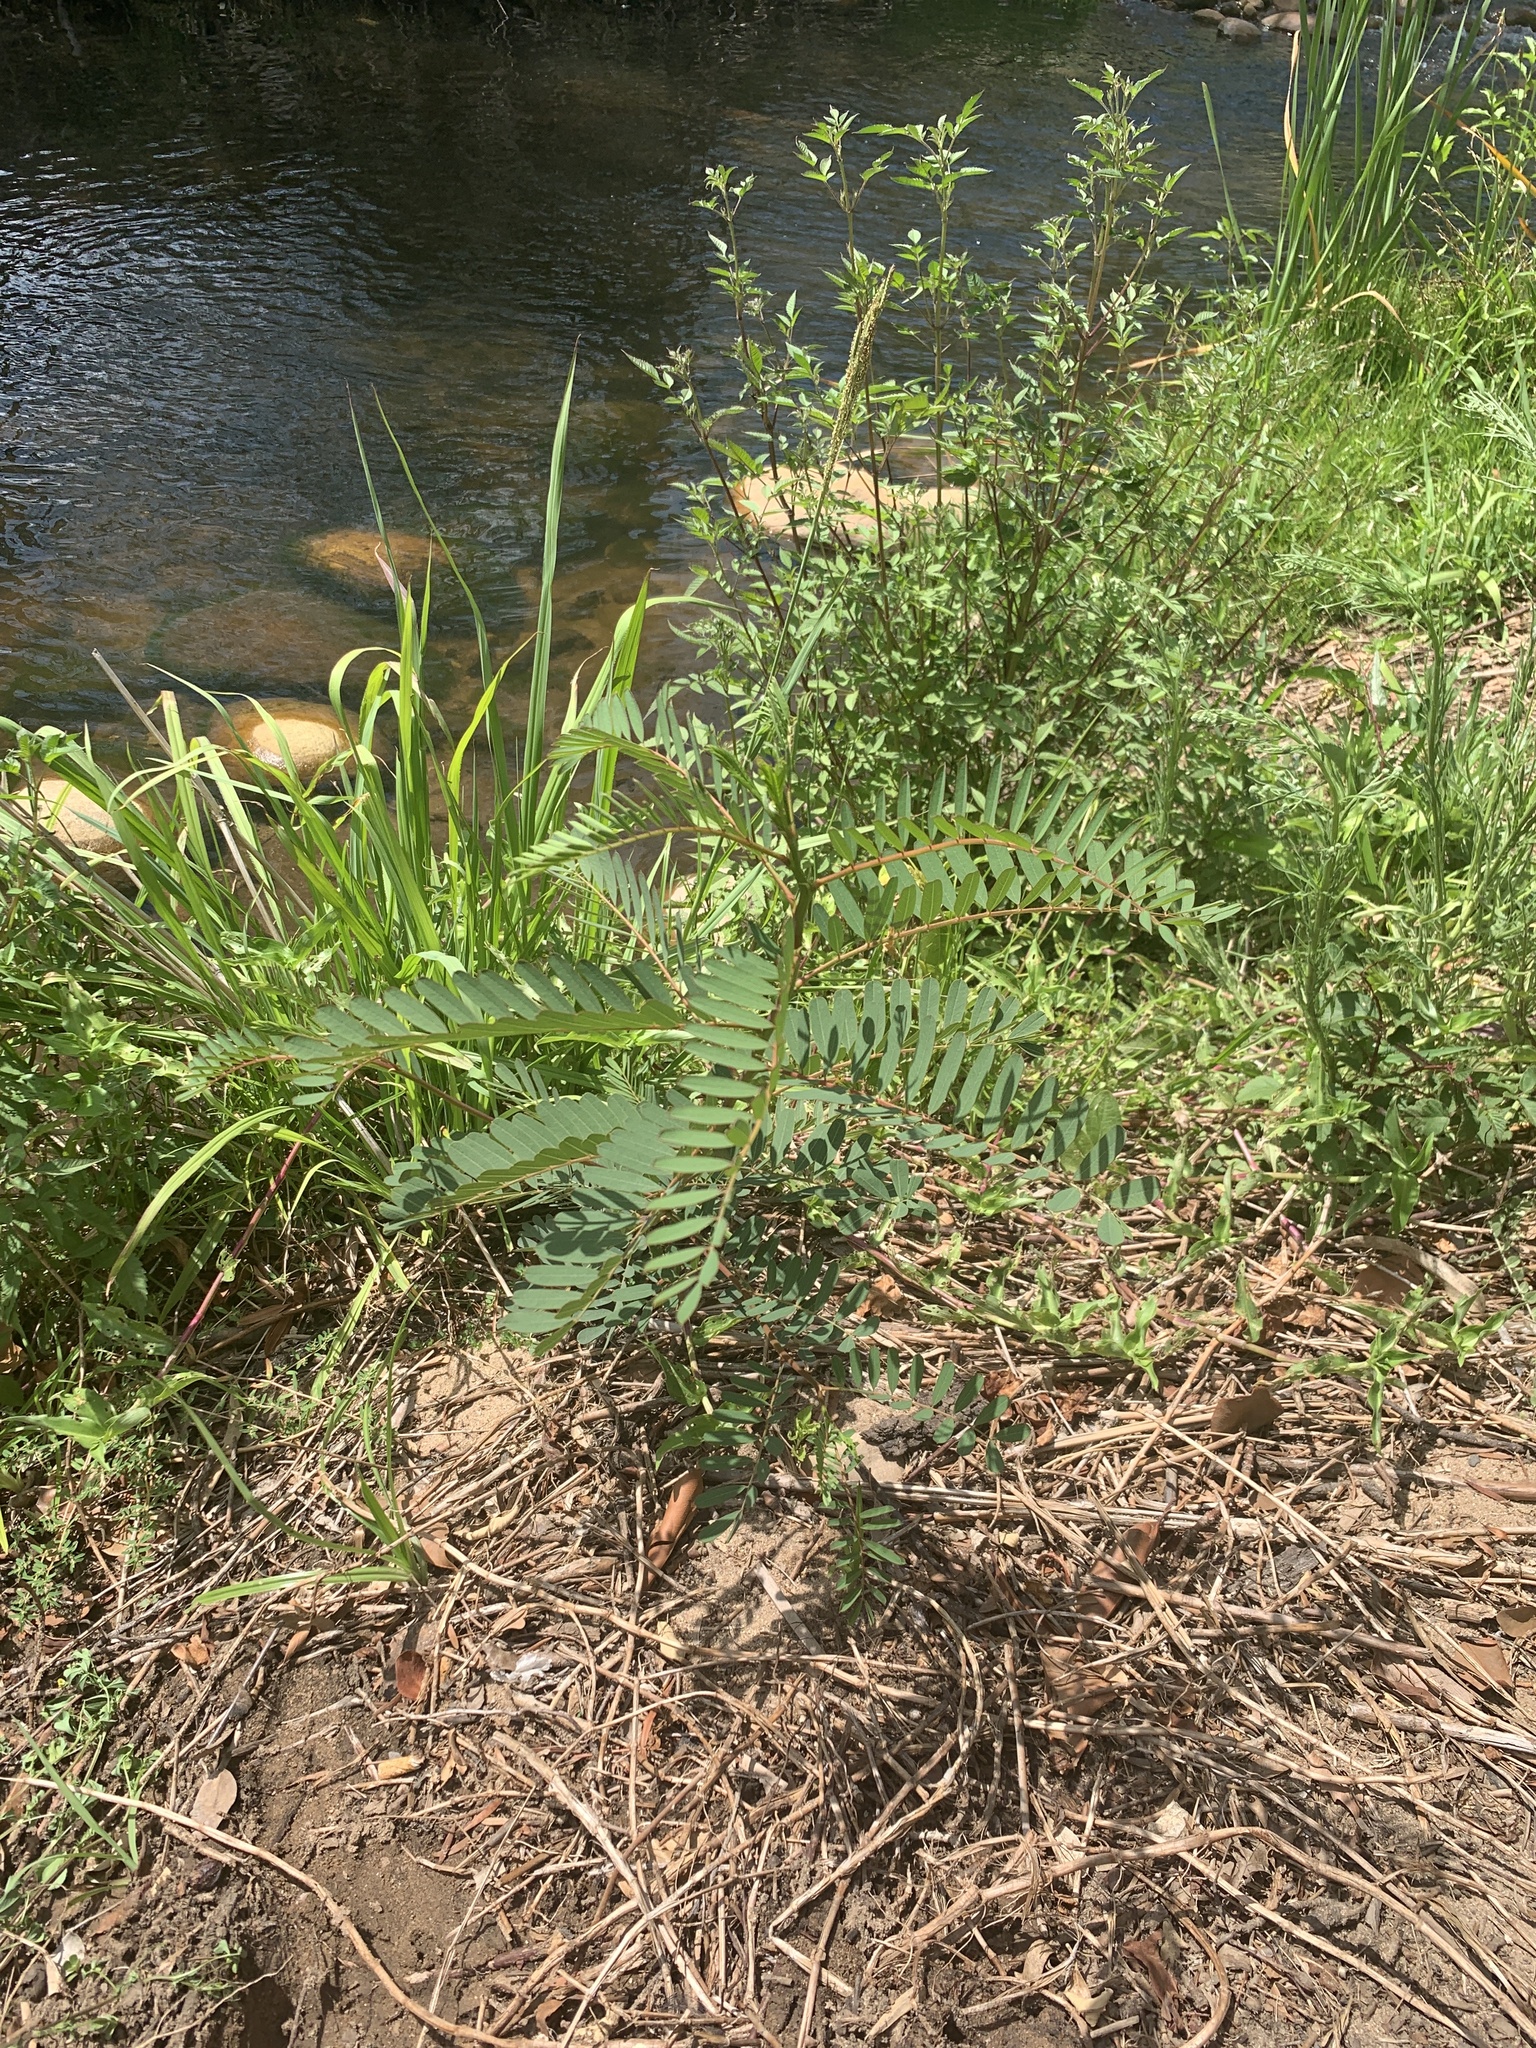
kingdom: Plantae
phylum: Tracheophyta
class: Magnoliopsida
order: Fabales
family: Fabaceae
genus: Sesbania
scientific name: Sesbania punicea
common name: Rattlebox
